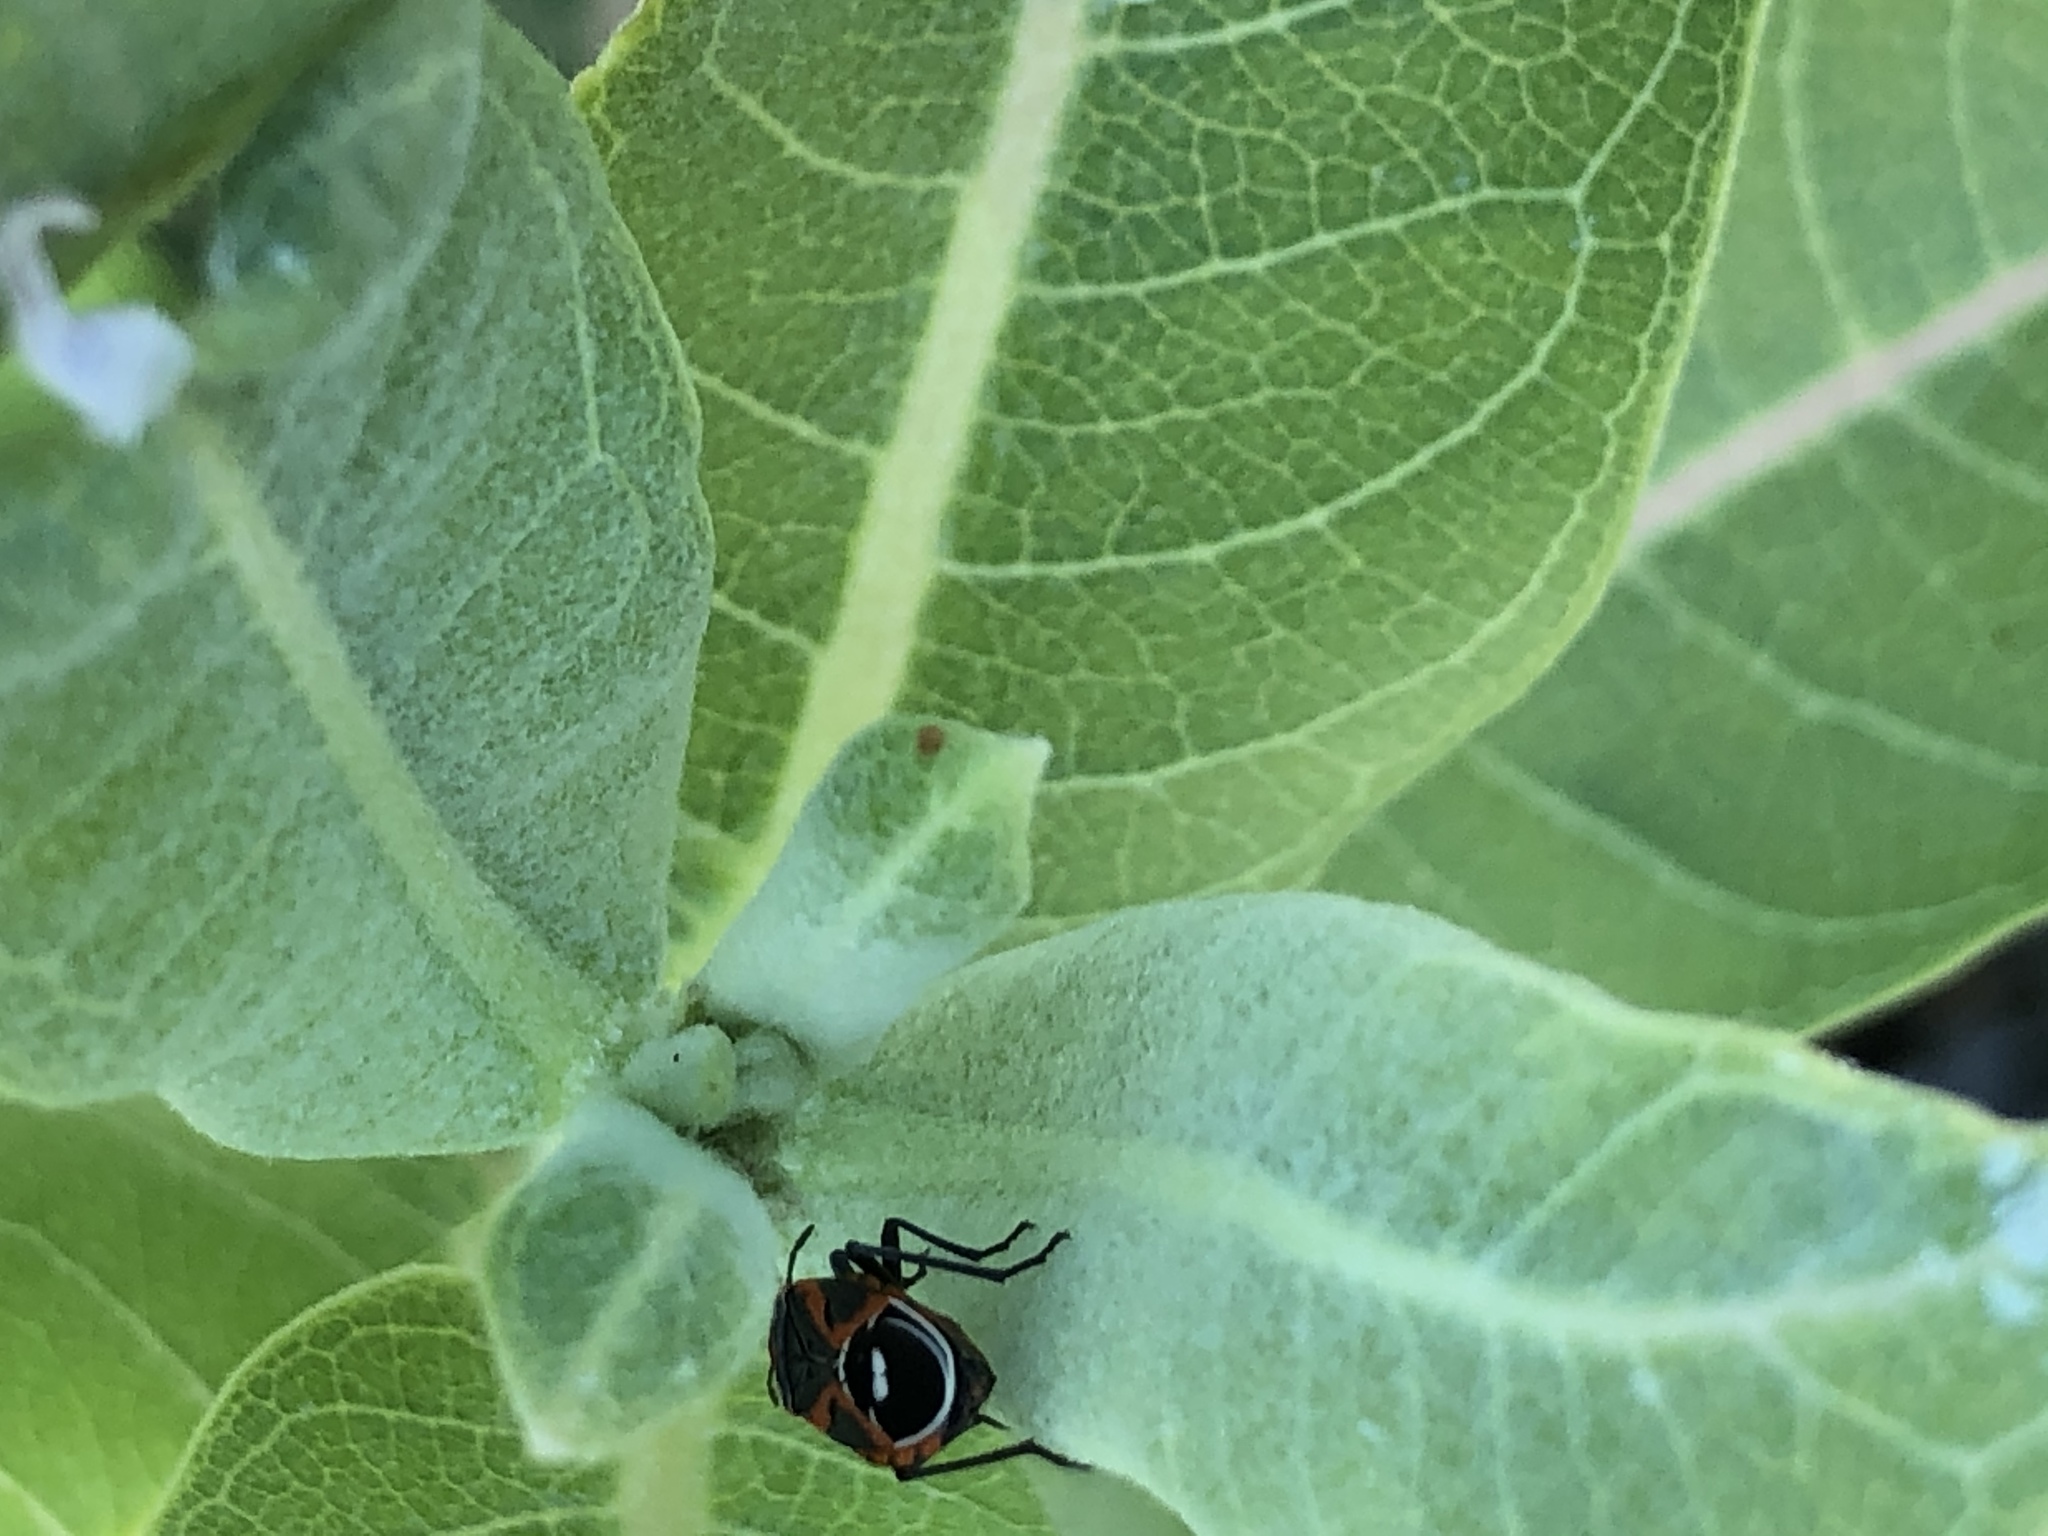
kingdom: Animalia
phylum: Arthropoda
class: Insecta
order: Hemiptera
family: Lygaeidae
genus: Lygaeus
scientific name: Lygaeus kalmii
